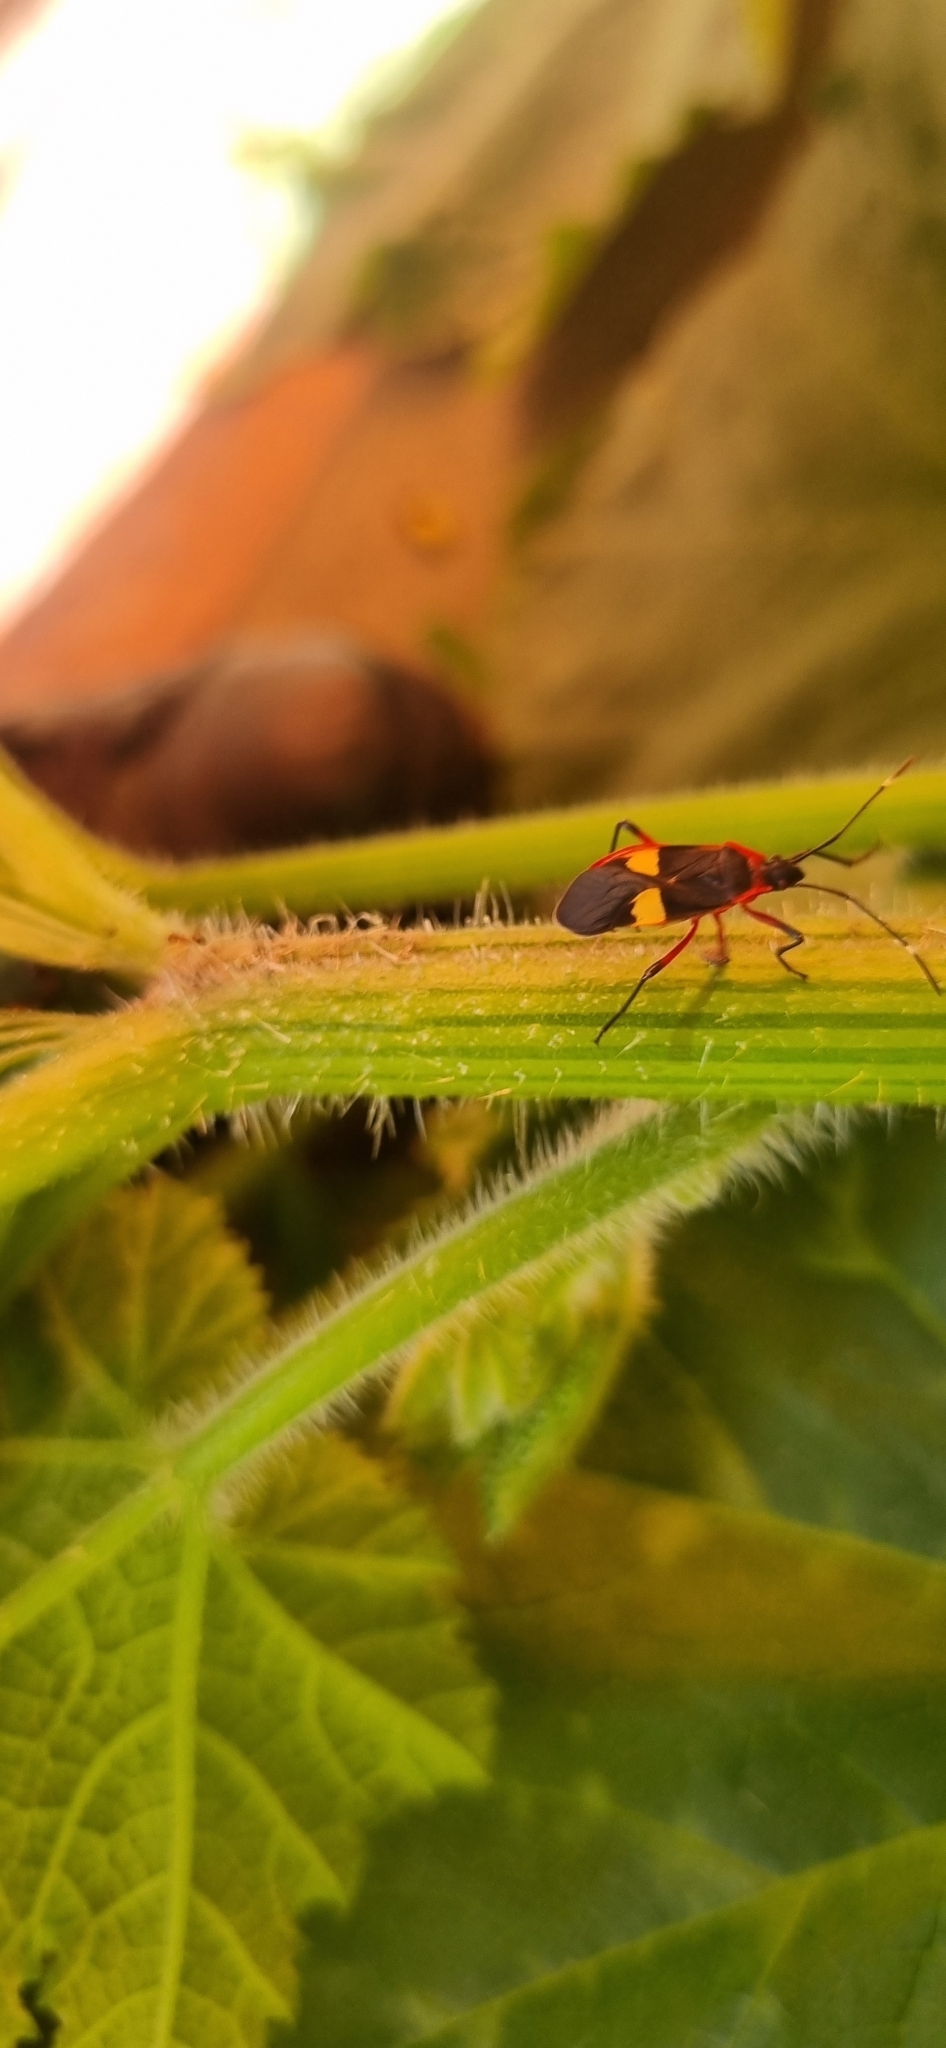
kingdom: Animalia
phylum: Arthropoda
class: Insecta
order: Hemiptera
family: Pyrrhocoridae
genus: Dysdercus
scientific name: Dysdercus albofasciatus
